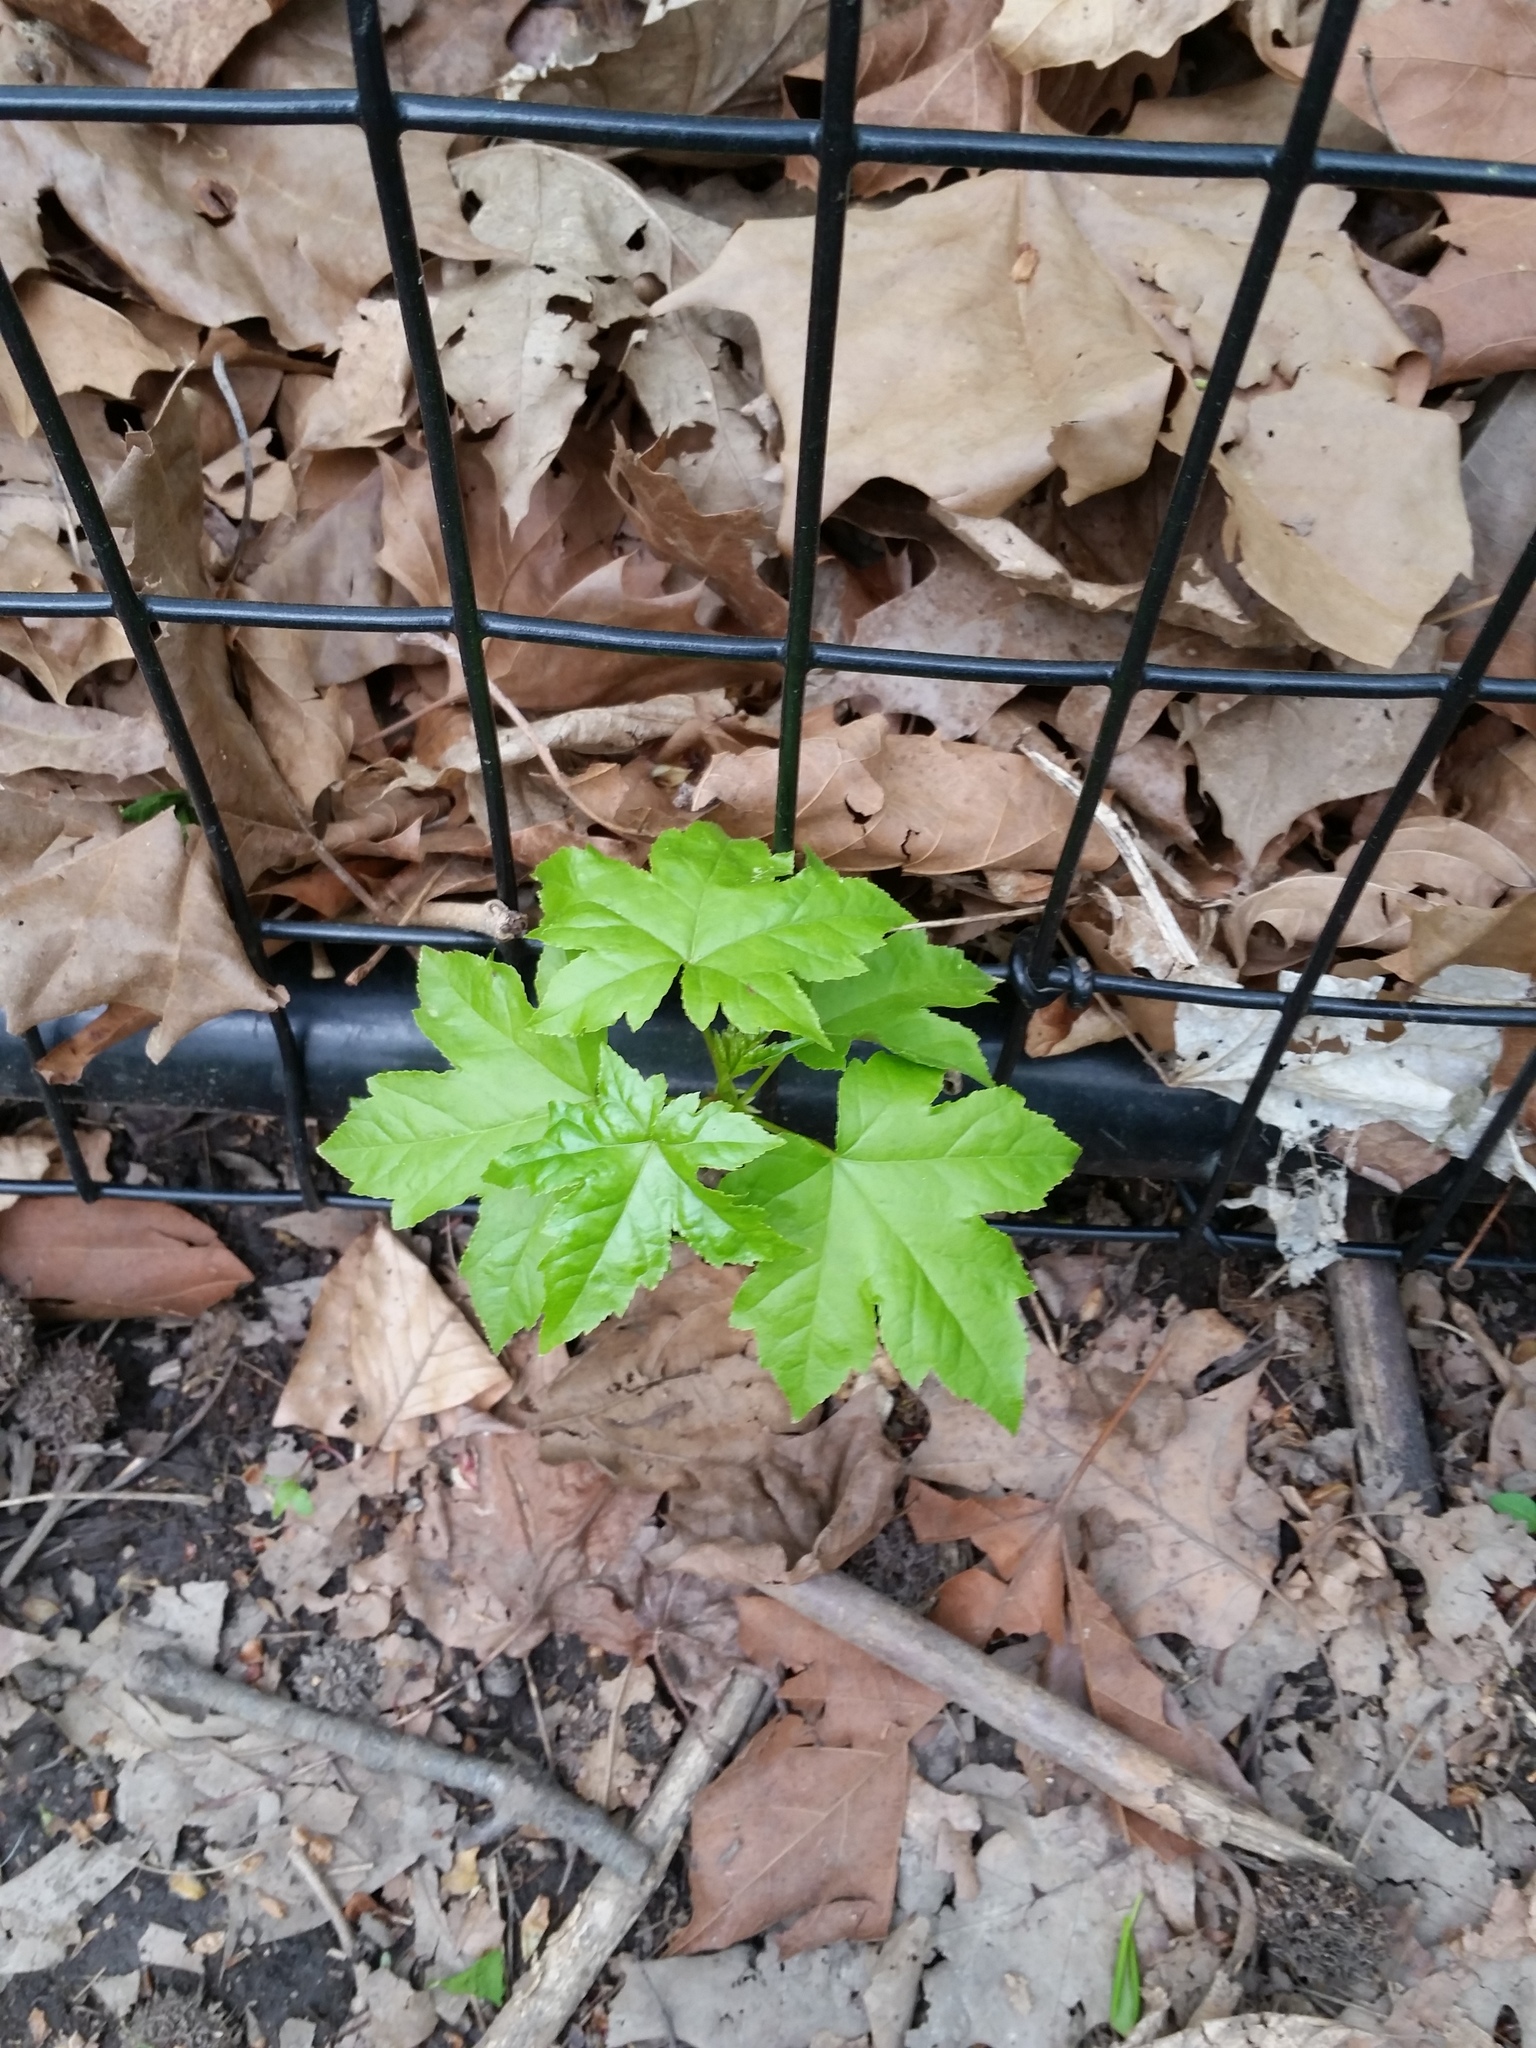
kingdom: Plantae
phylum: Tracheophyta
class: Magnoliopsida
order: Saxifragales
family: Altingiaceae
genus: Liquidambar
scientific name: Liquidambar styraciflua
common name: Sweet gum
